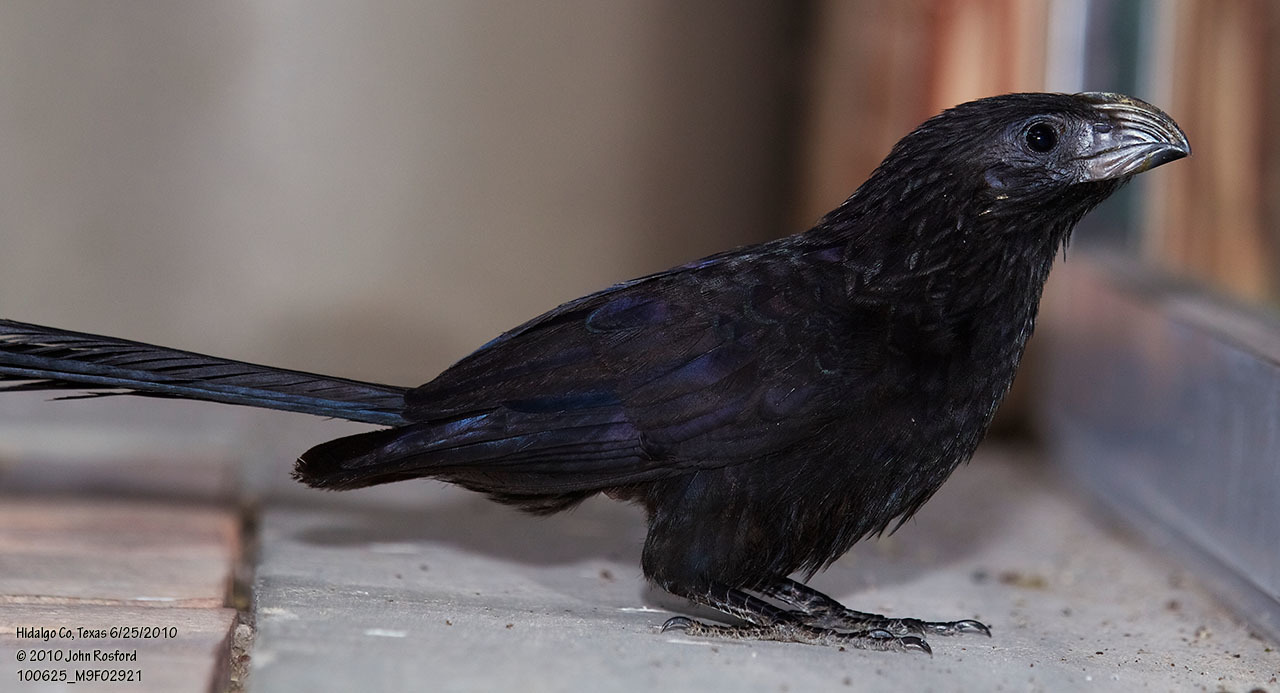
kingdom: Animalia
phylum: Chordata
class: Aves
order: Cuculiformes
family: Cuculidae
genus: Crotophaga
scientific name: Crotophaga sulcirostris
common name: Groove-billed ani
